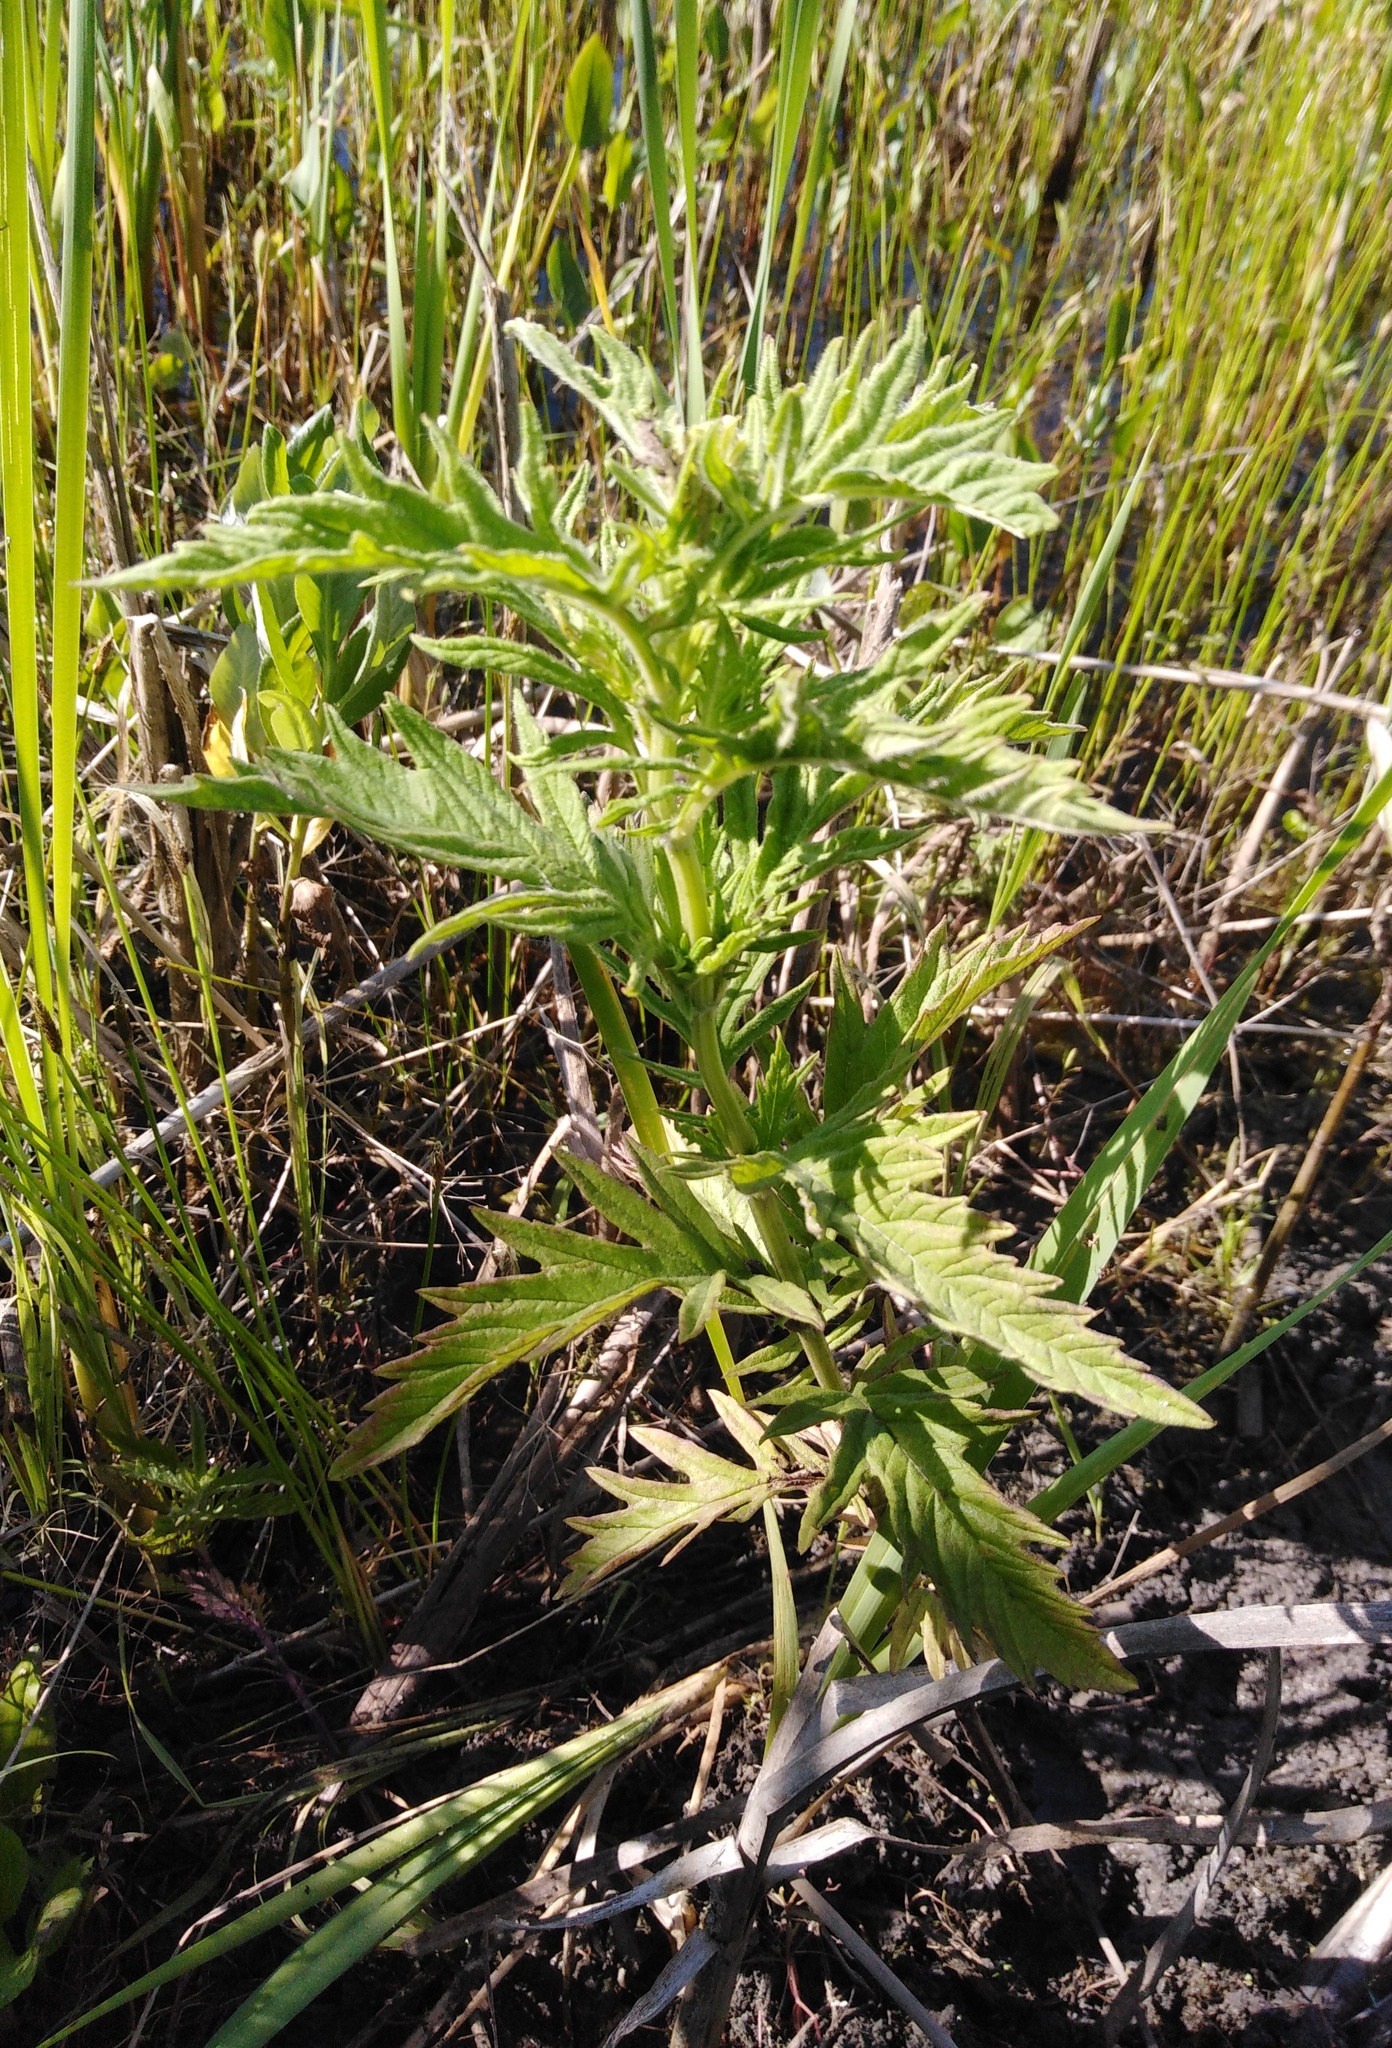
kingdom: Plantae
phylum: Tracheophyta
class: Magnoliopsida
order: Lamiales
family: Lamiaceae
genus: Lycopus
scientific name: Lycopus exaltatus
